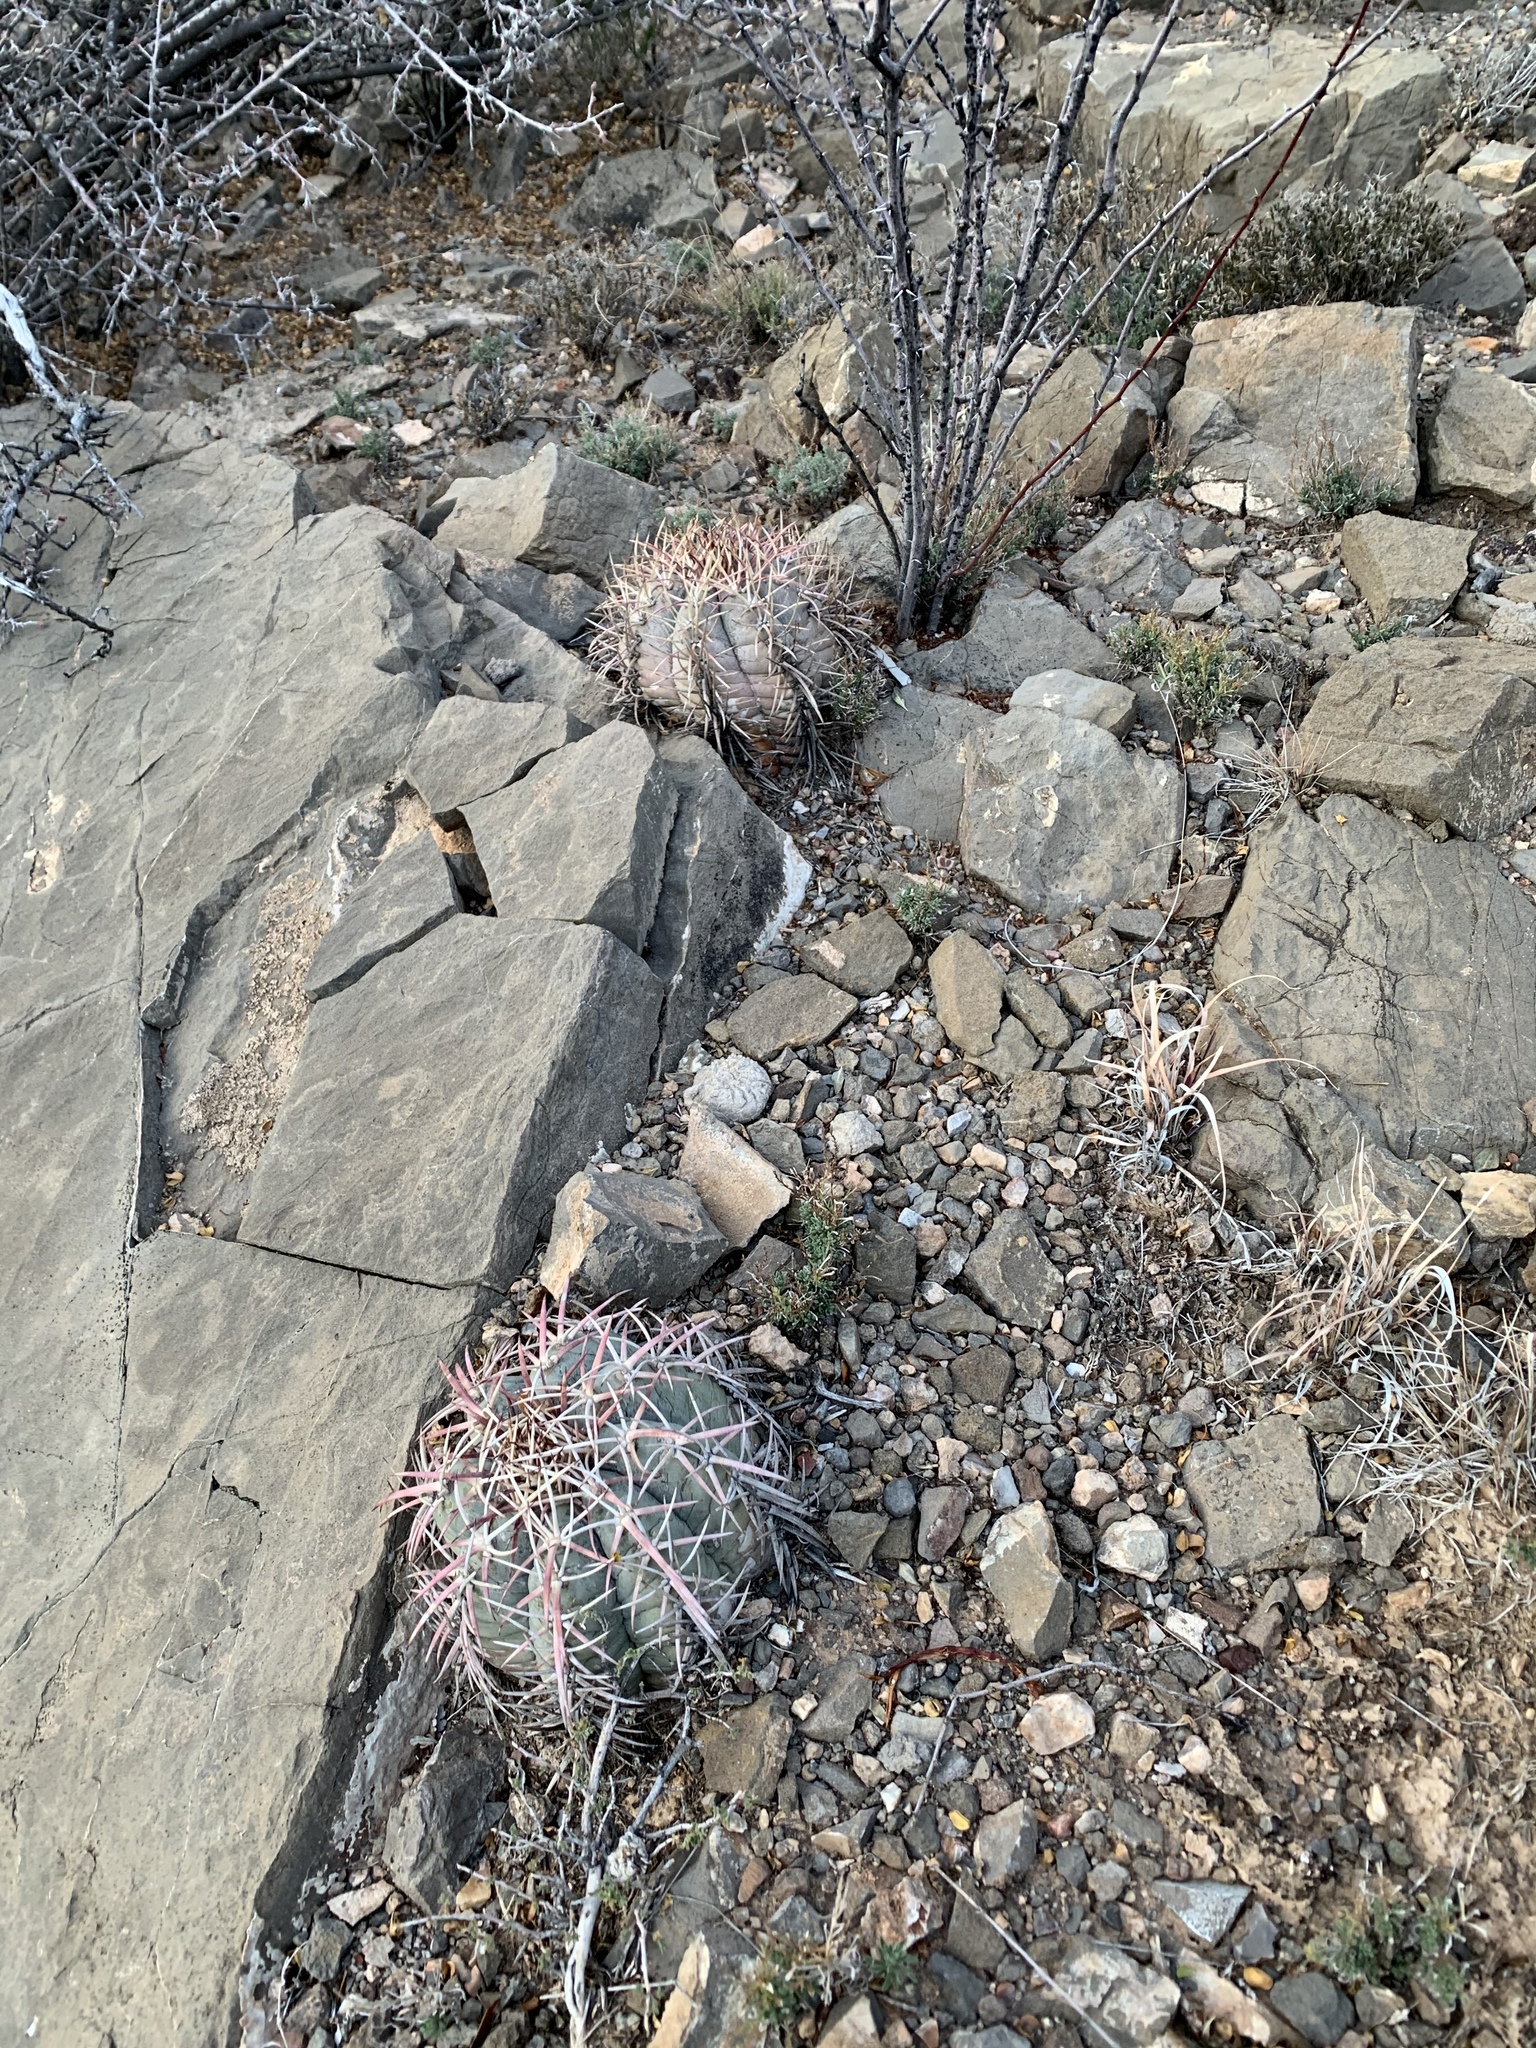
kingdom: Plantae
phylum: Tracheophyta
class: Magnoliopsida
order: Caryophyllales
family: Cactaceae
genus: Echinocactus
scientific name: Echinocactus horizonthalonius
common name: Devilshead
